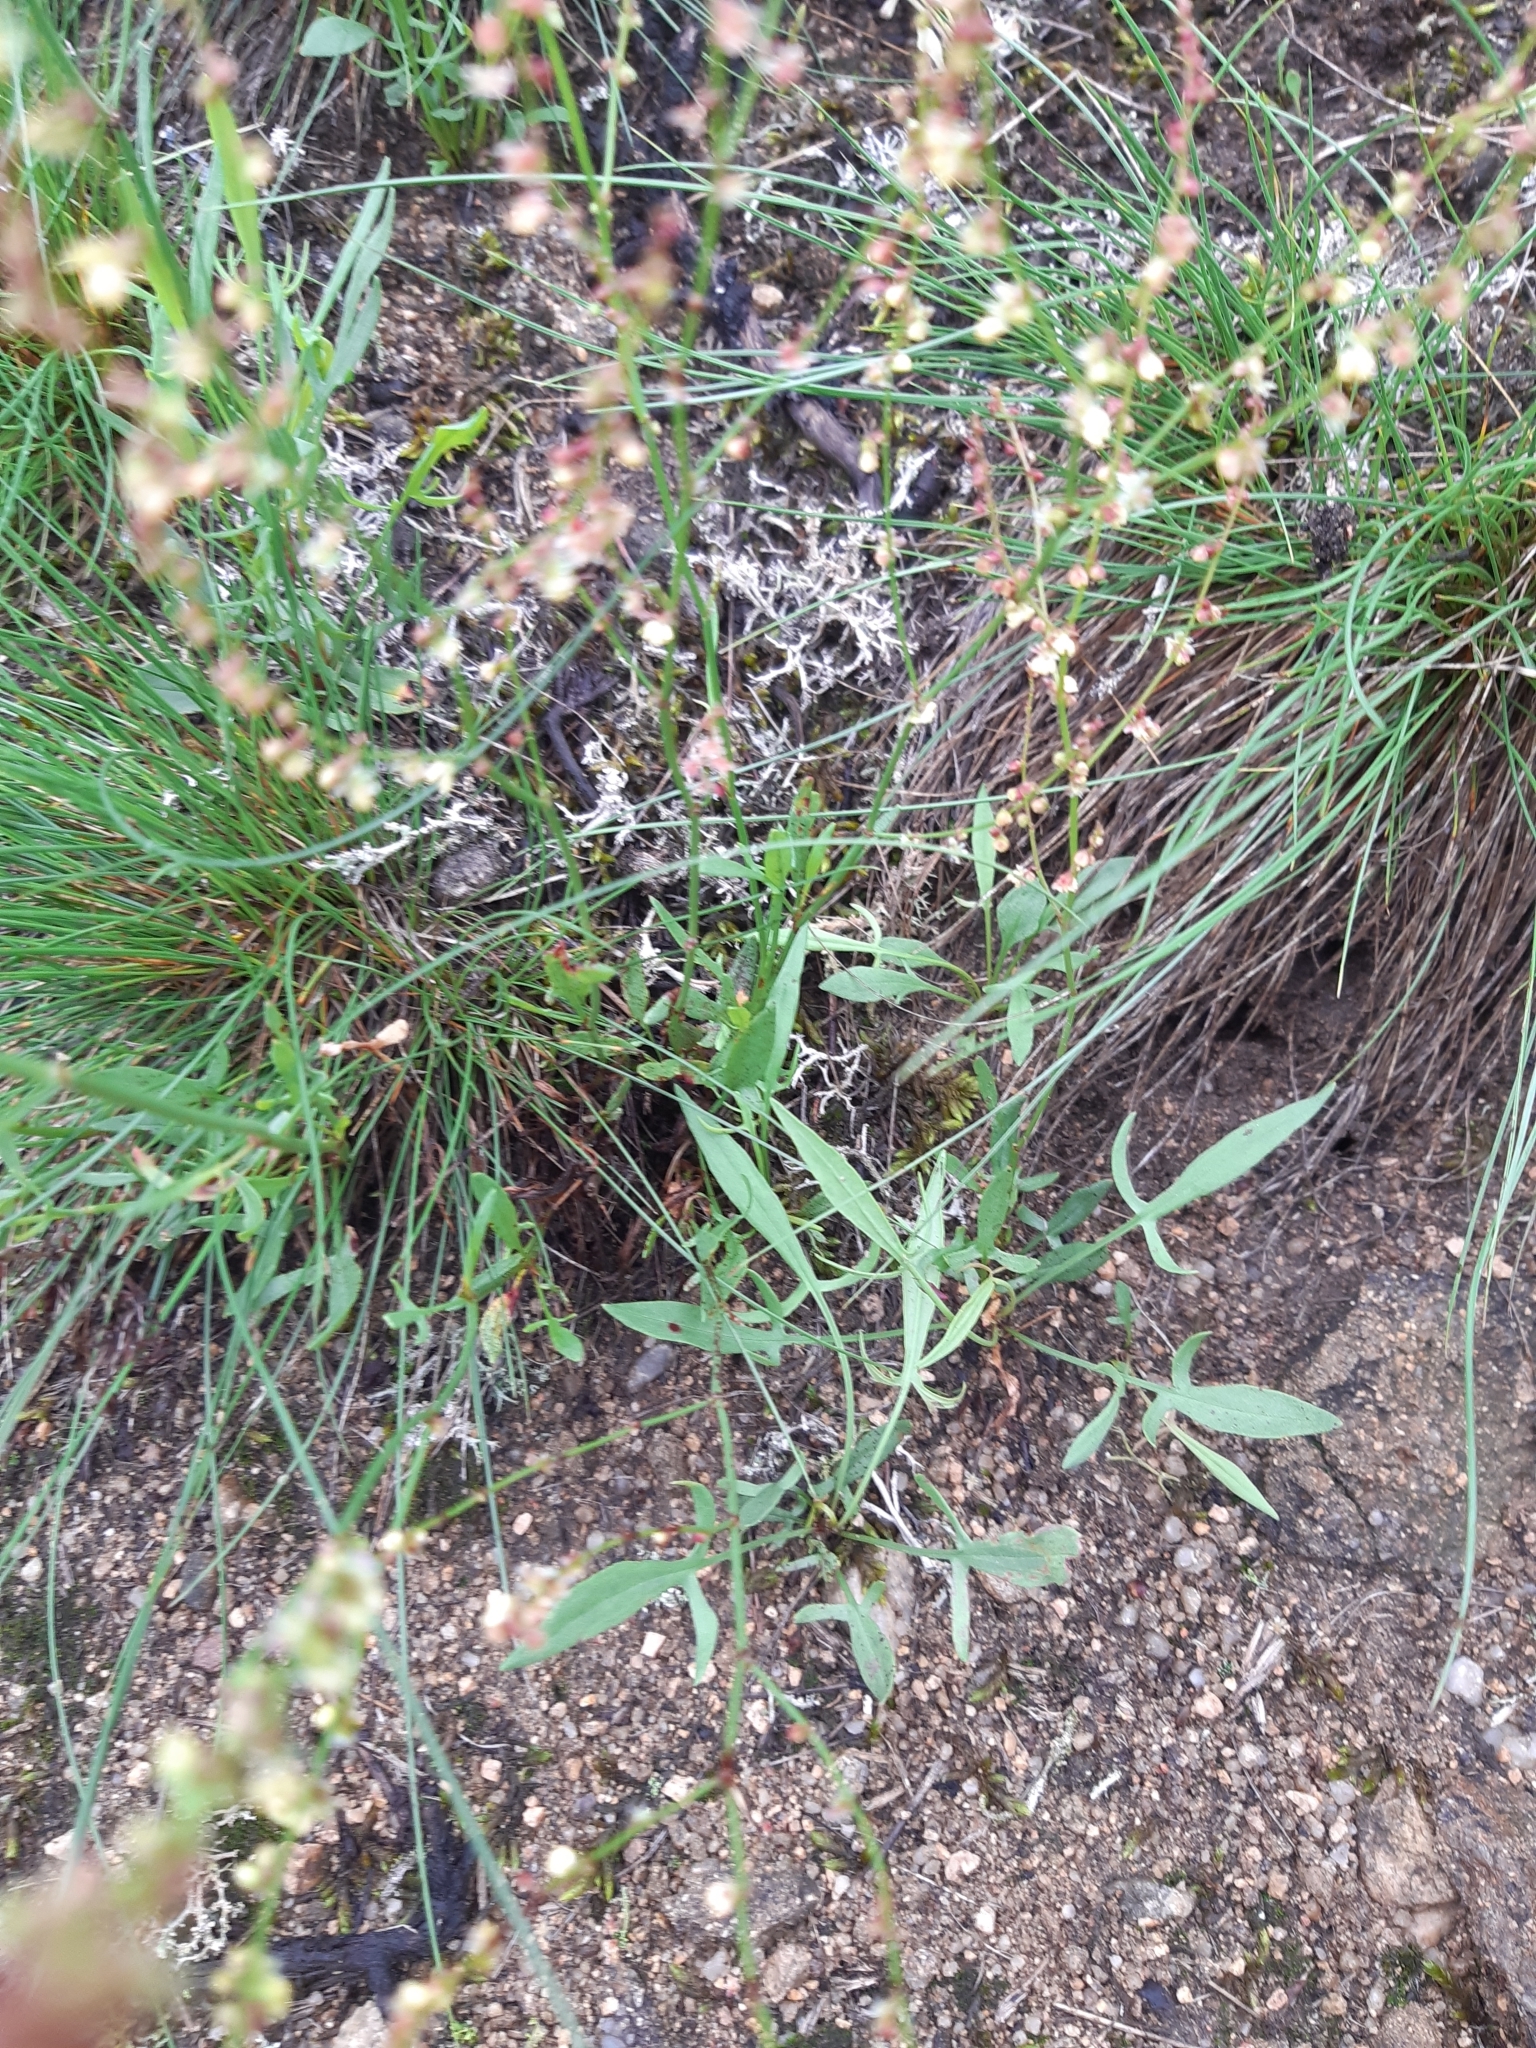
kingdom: Plantae
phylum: Tracheophyta
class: Magnoliopsida
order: Caryophyllales
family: Polygonaceae
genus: Rumex
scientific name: Rumex acetosella
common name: Common sheep sorrel
